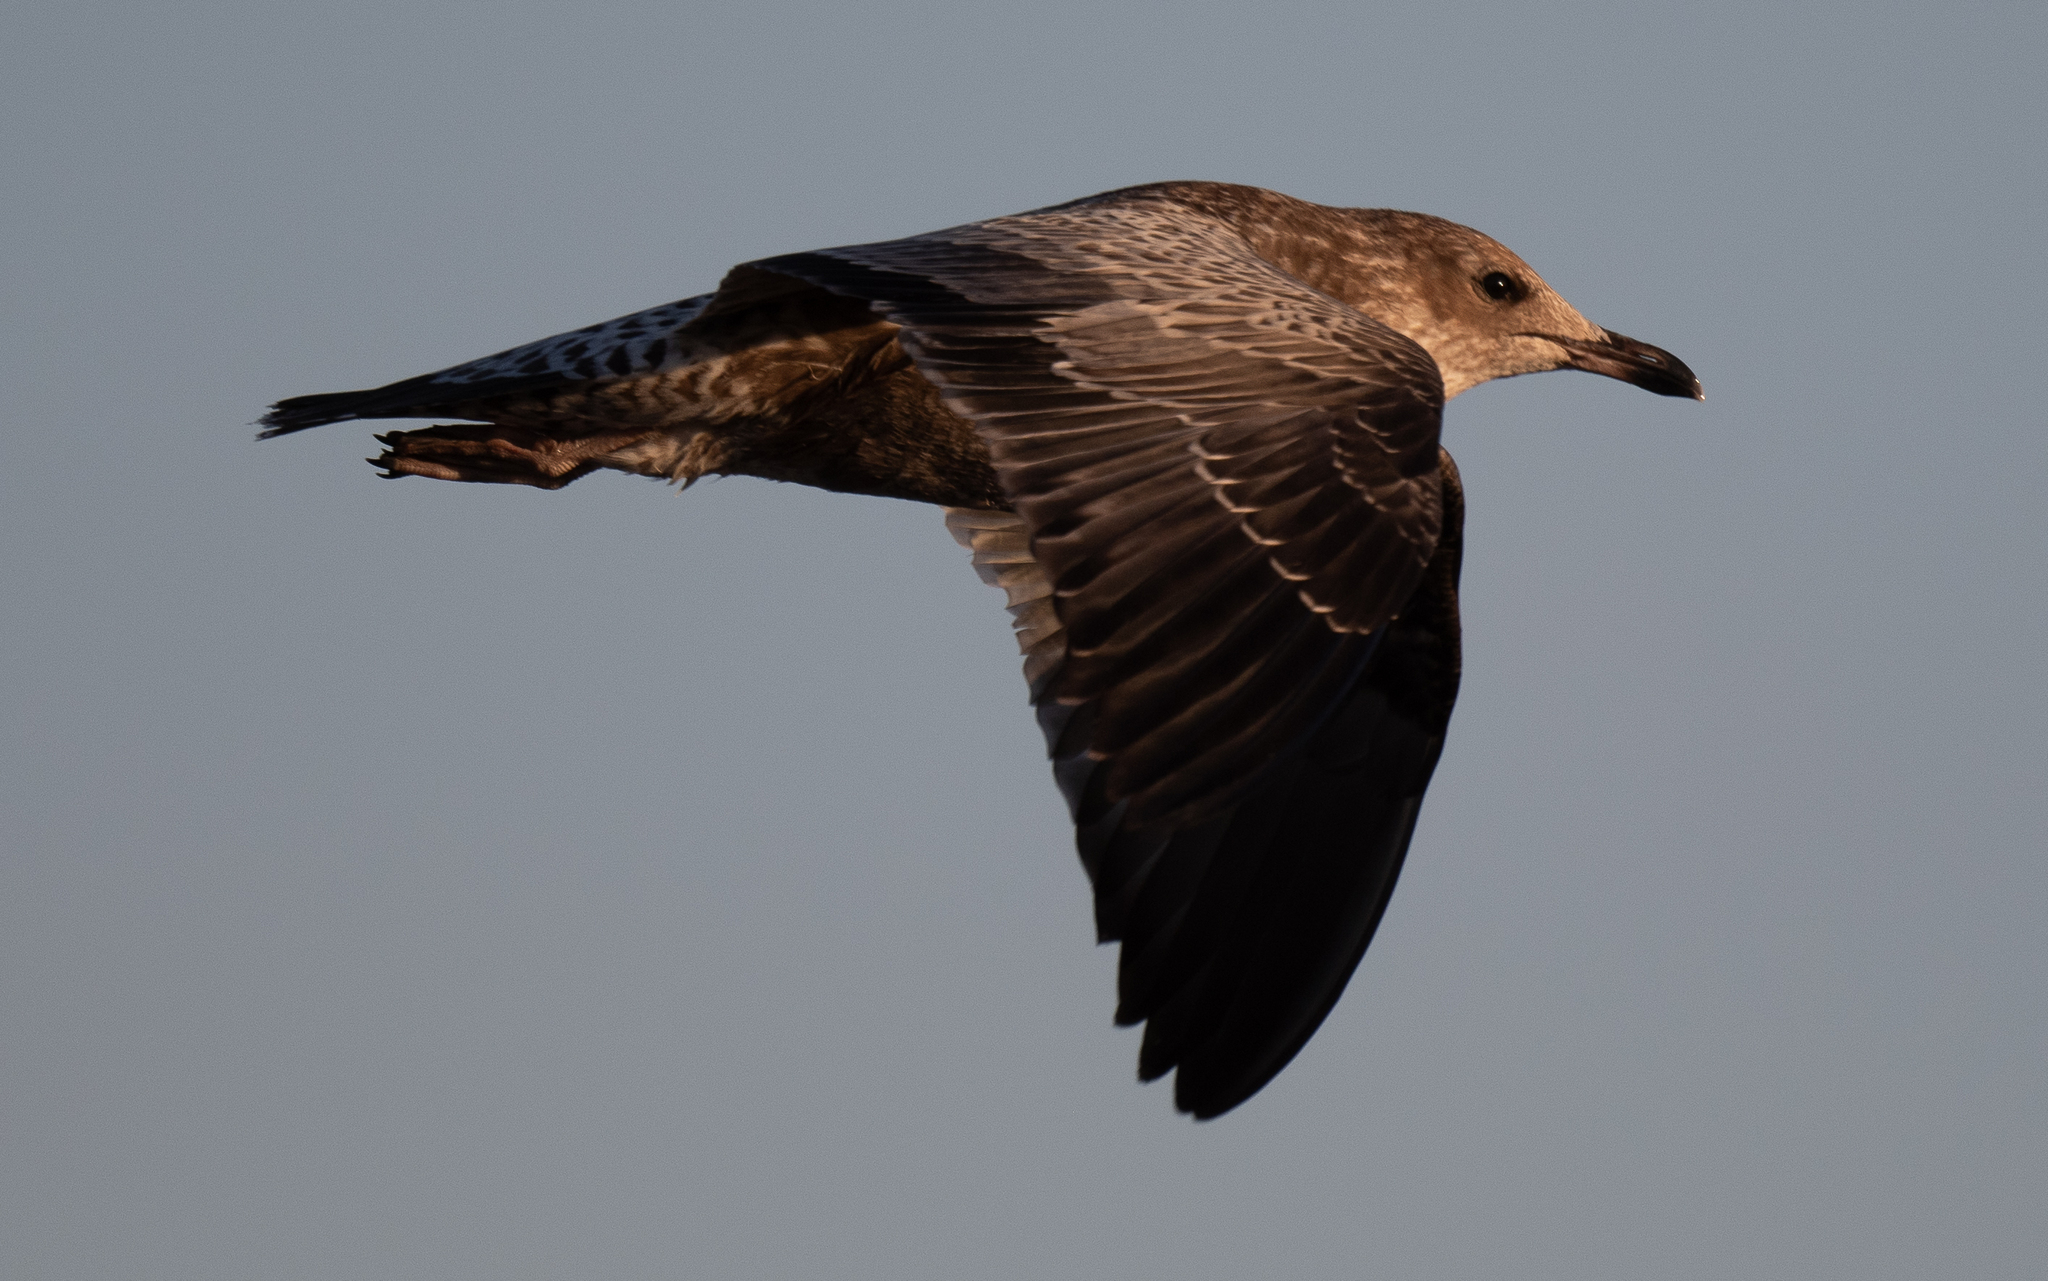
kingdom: Animalia
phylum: Chordata
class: Aves
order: Charadriiformes
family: Laridae
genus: Larus
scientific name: Larus californicus
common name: California gull
